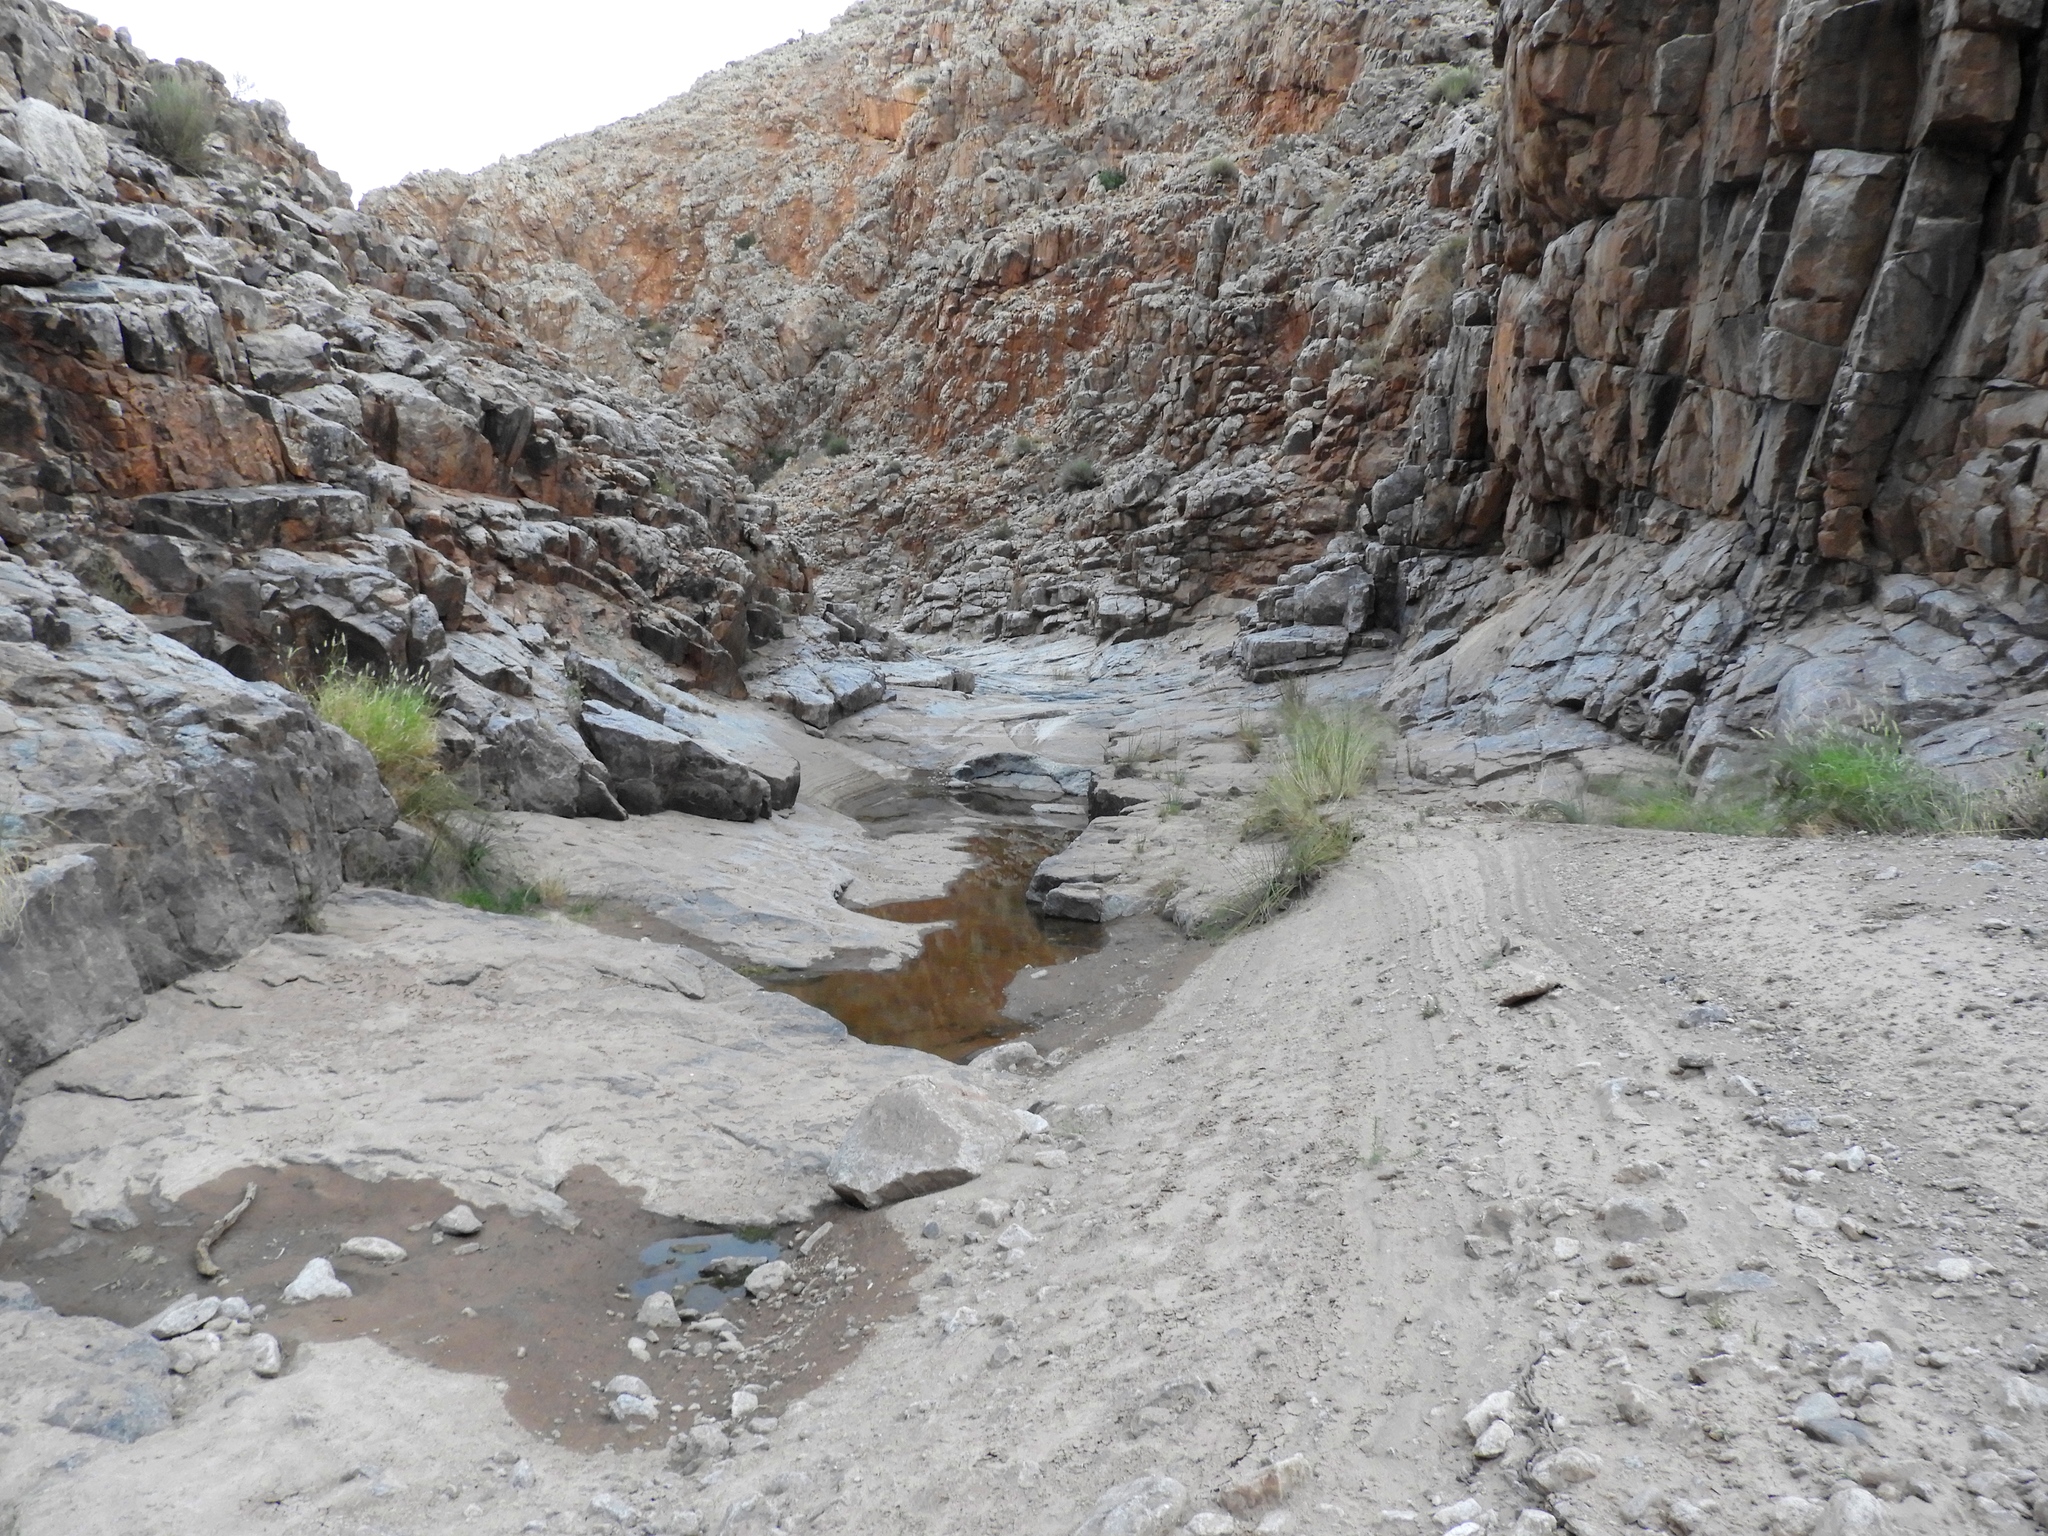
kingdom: Animalia
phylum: Chordata
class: Amphibia
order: Anura
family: Microhylidae
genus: Phrynomantis
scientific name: Phrynomantis annectens
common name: Marbled rubber frog
